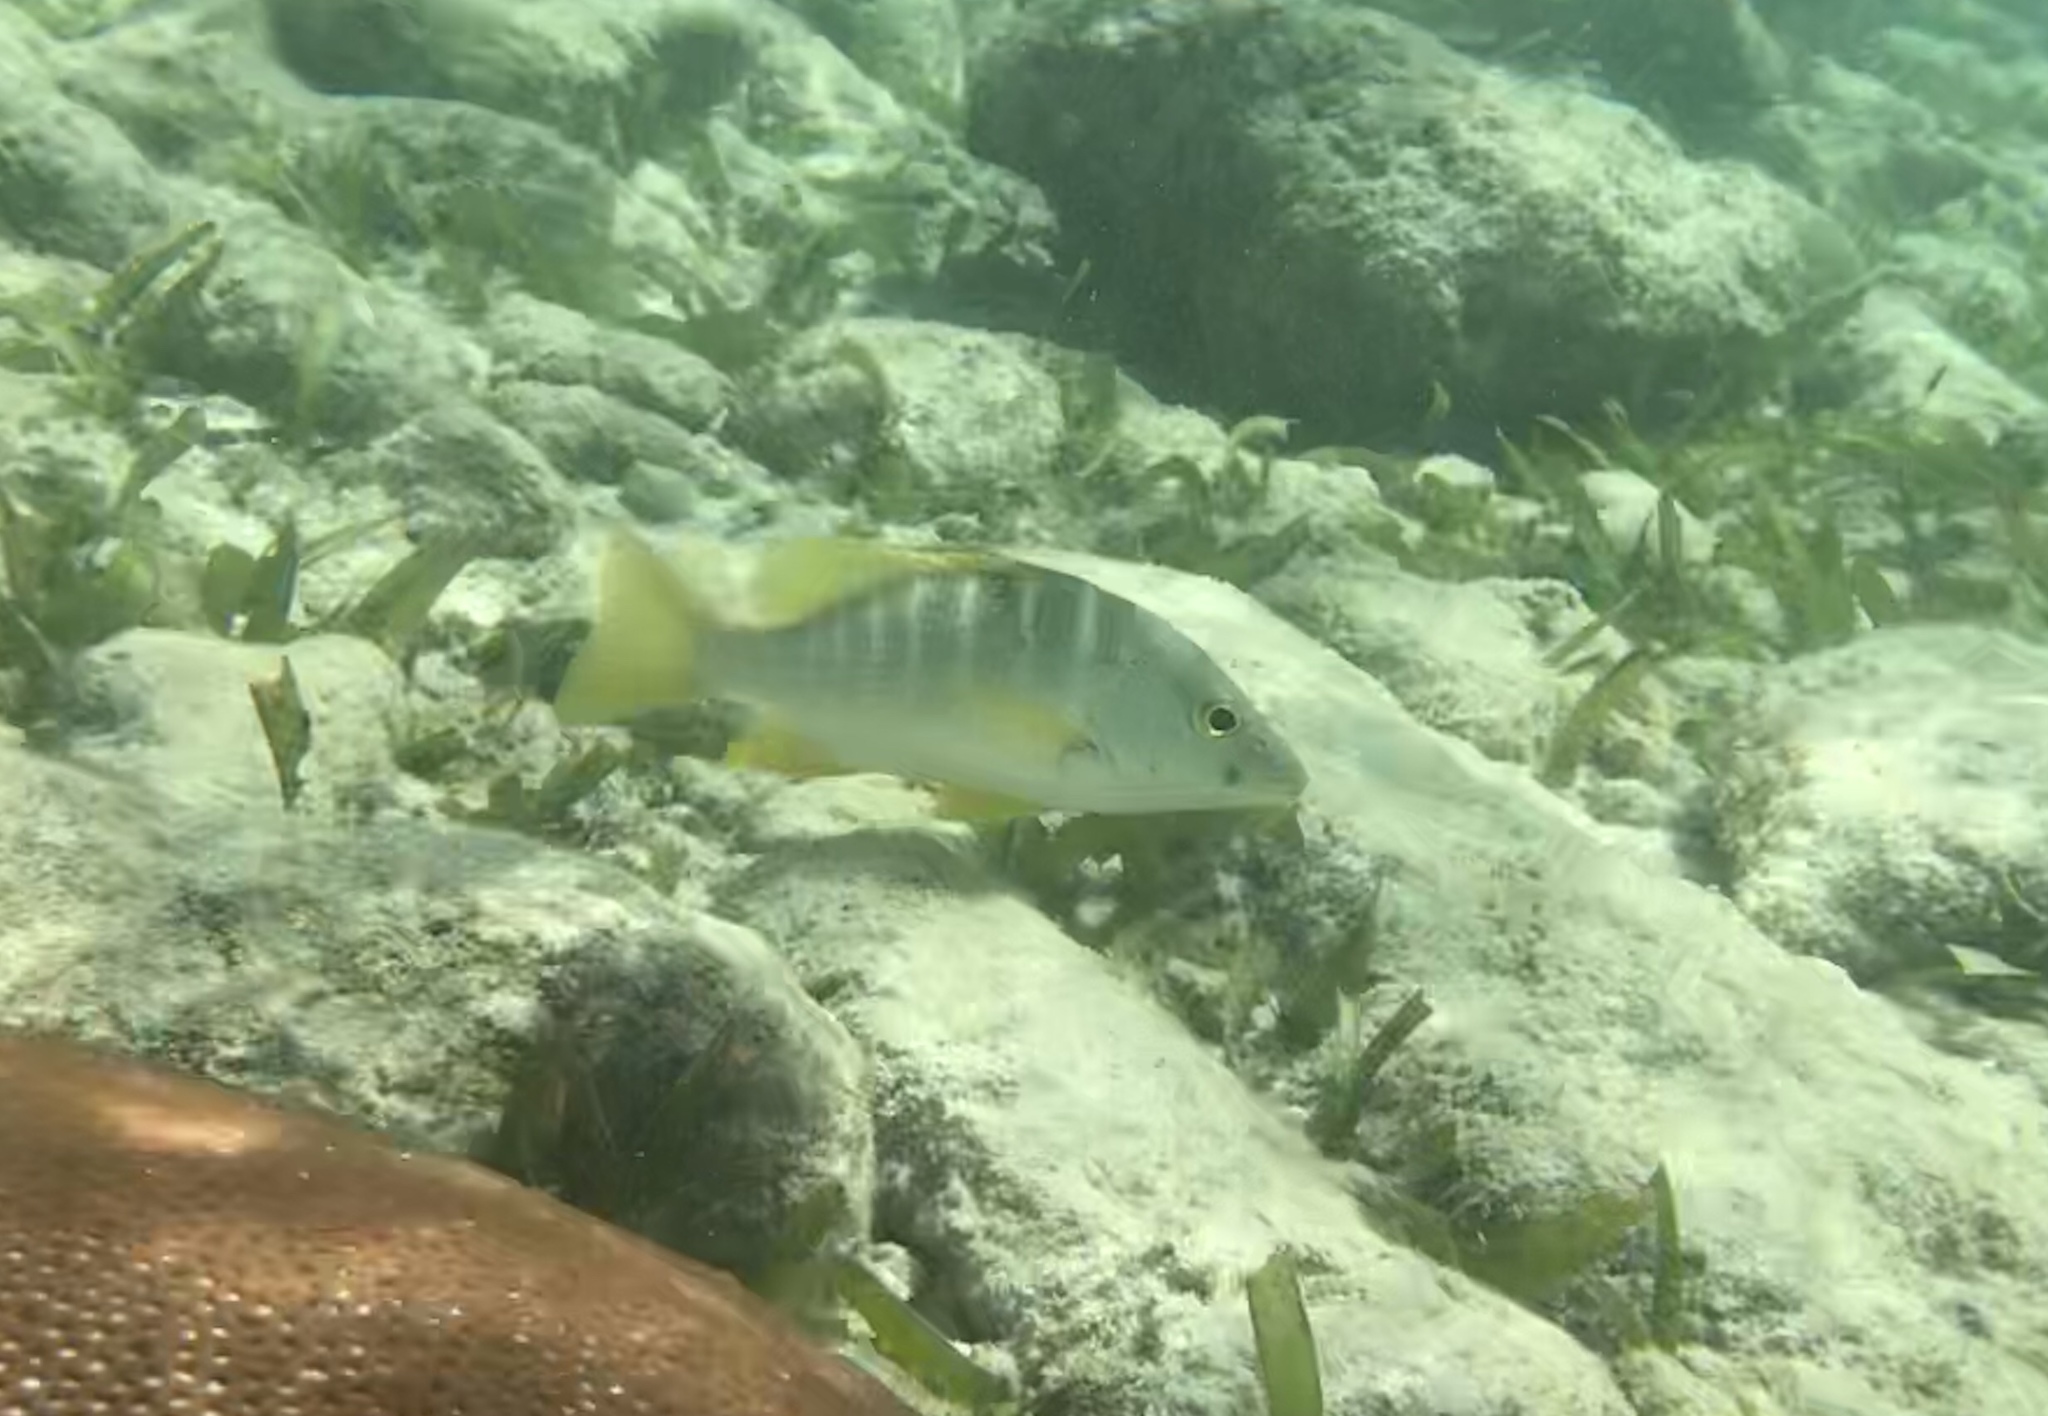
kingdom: Animalia
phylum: Chordata
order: Perciformes
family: Lutjanidae
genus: Lutjanus
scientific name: Lutjanus apodus
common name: Schoolmaster
